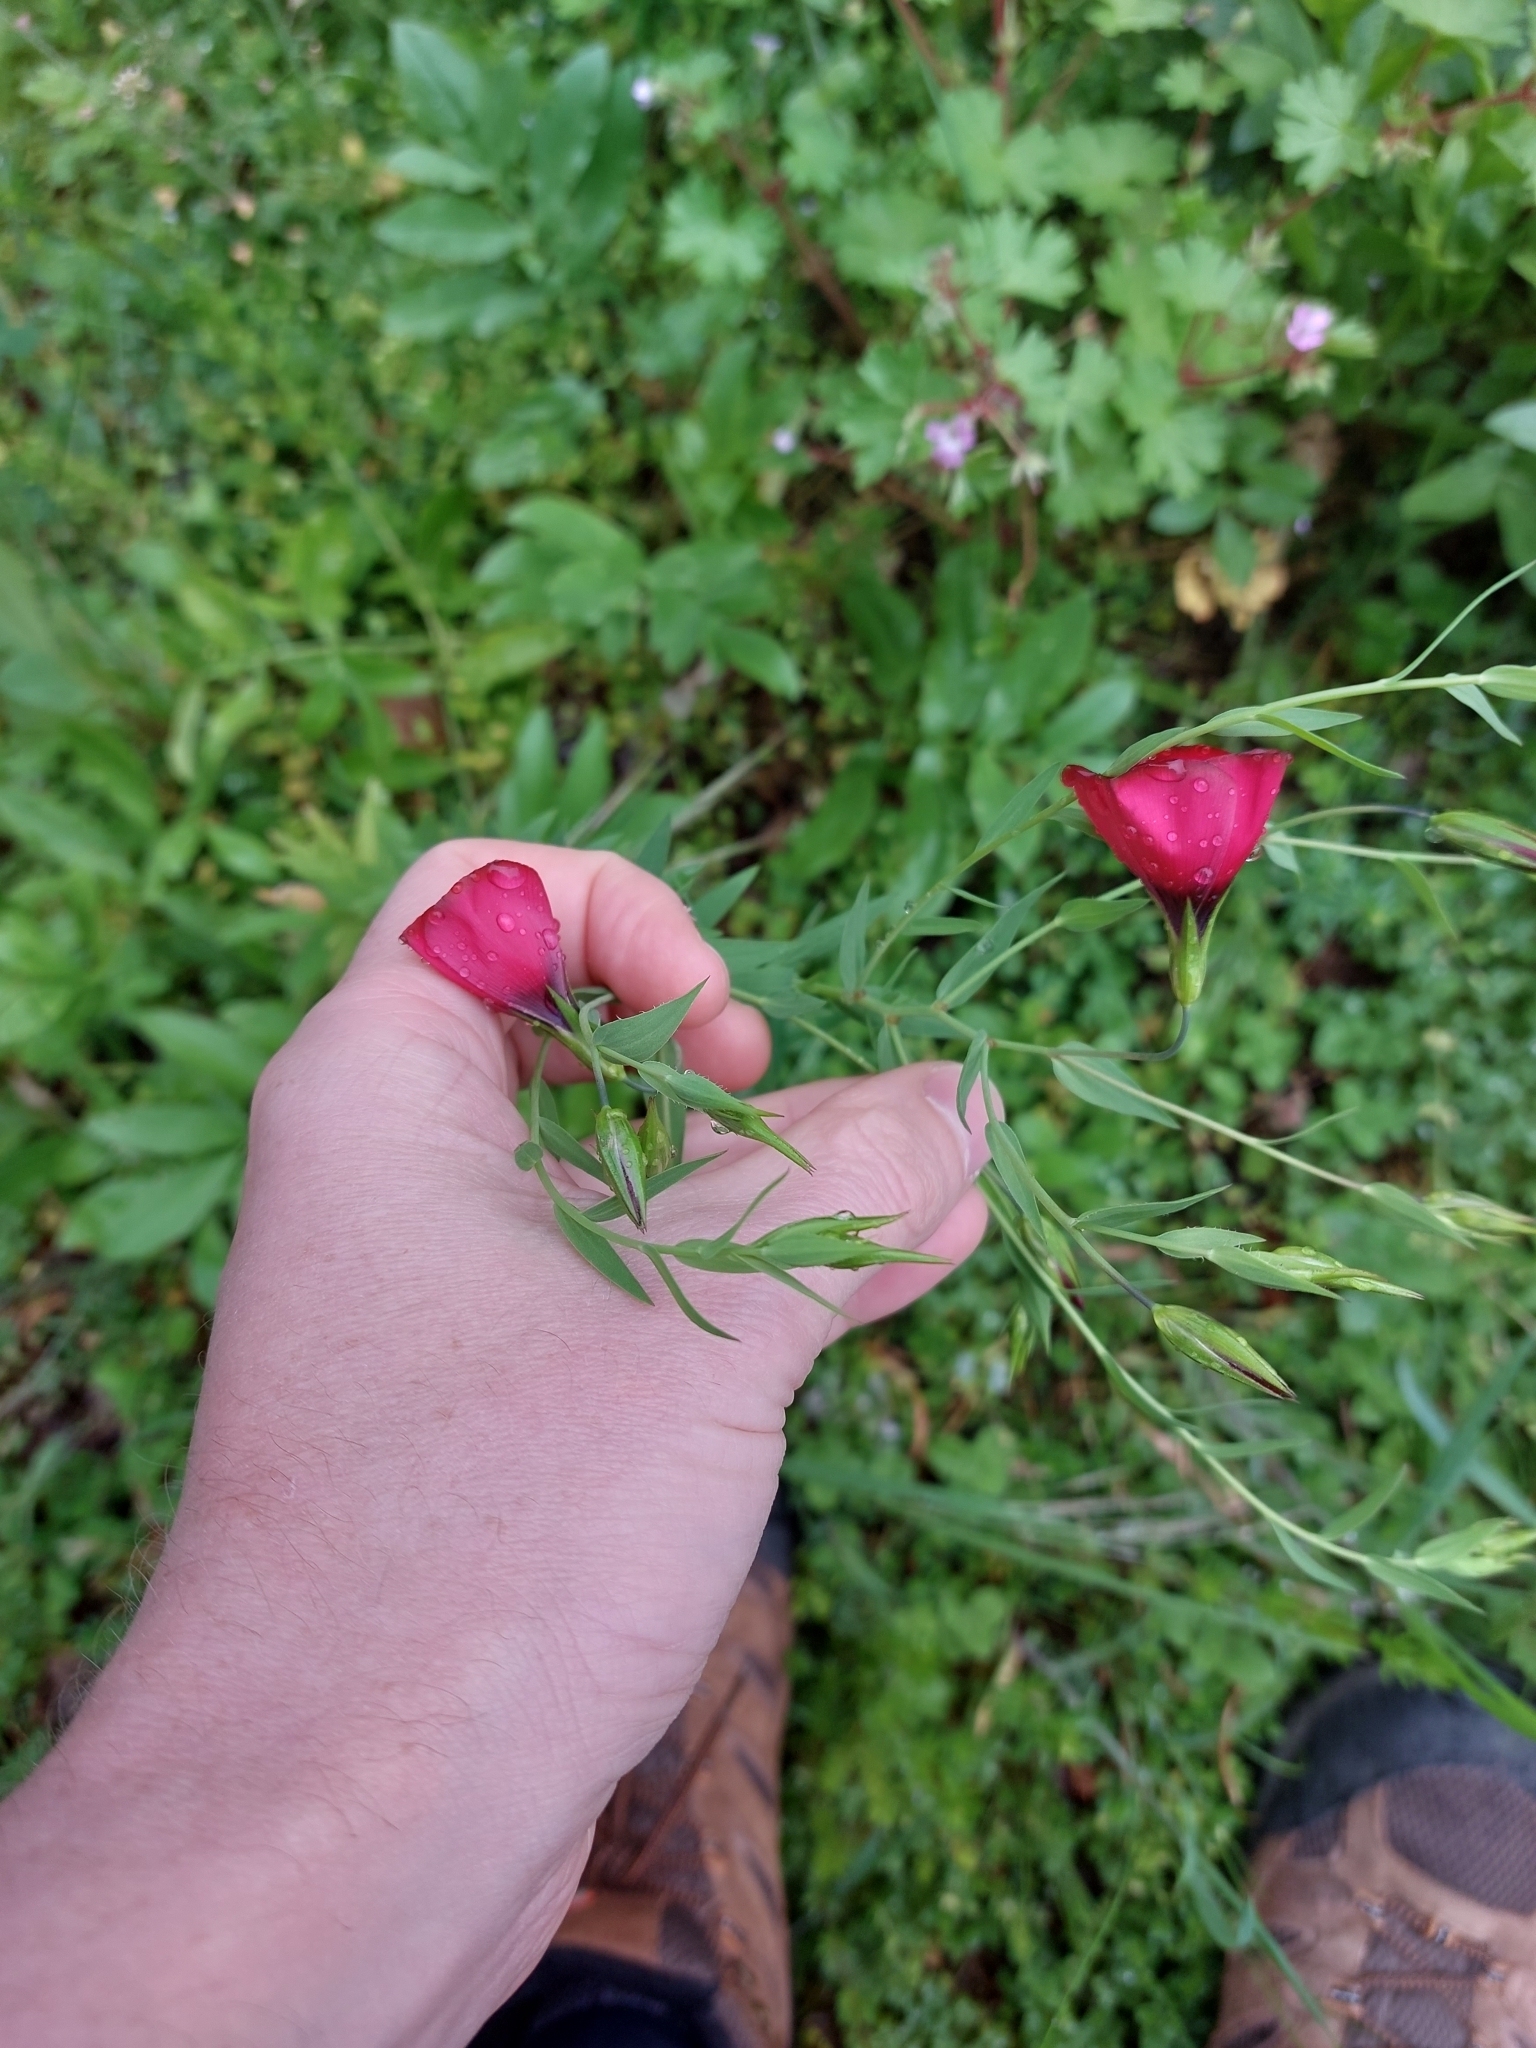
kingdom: Plantae
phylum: Tracheophyta
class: Magnoliopsida
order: Malpighiales
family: Linaceae
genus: Linum
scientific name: Linum grandiflorum
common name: Crimson flax
